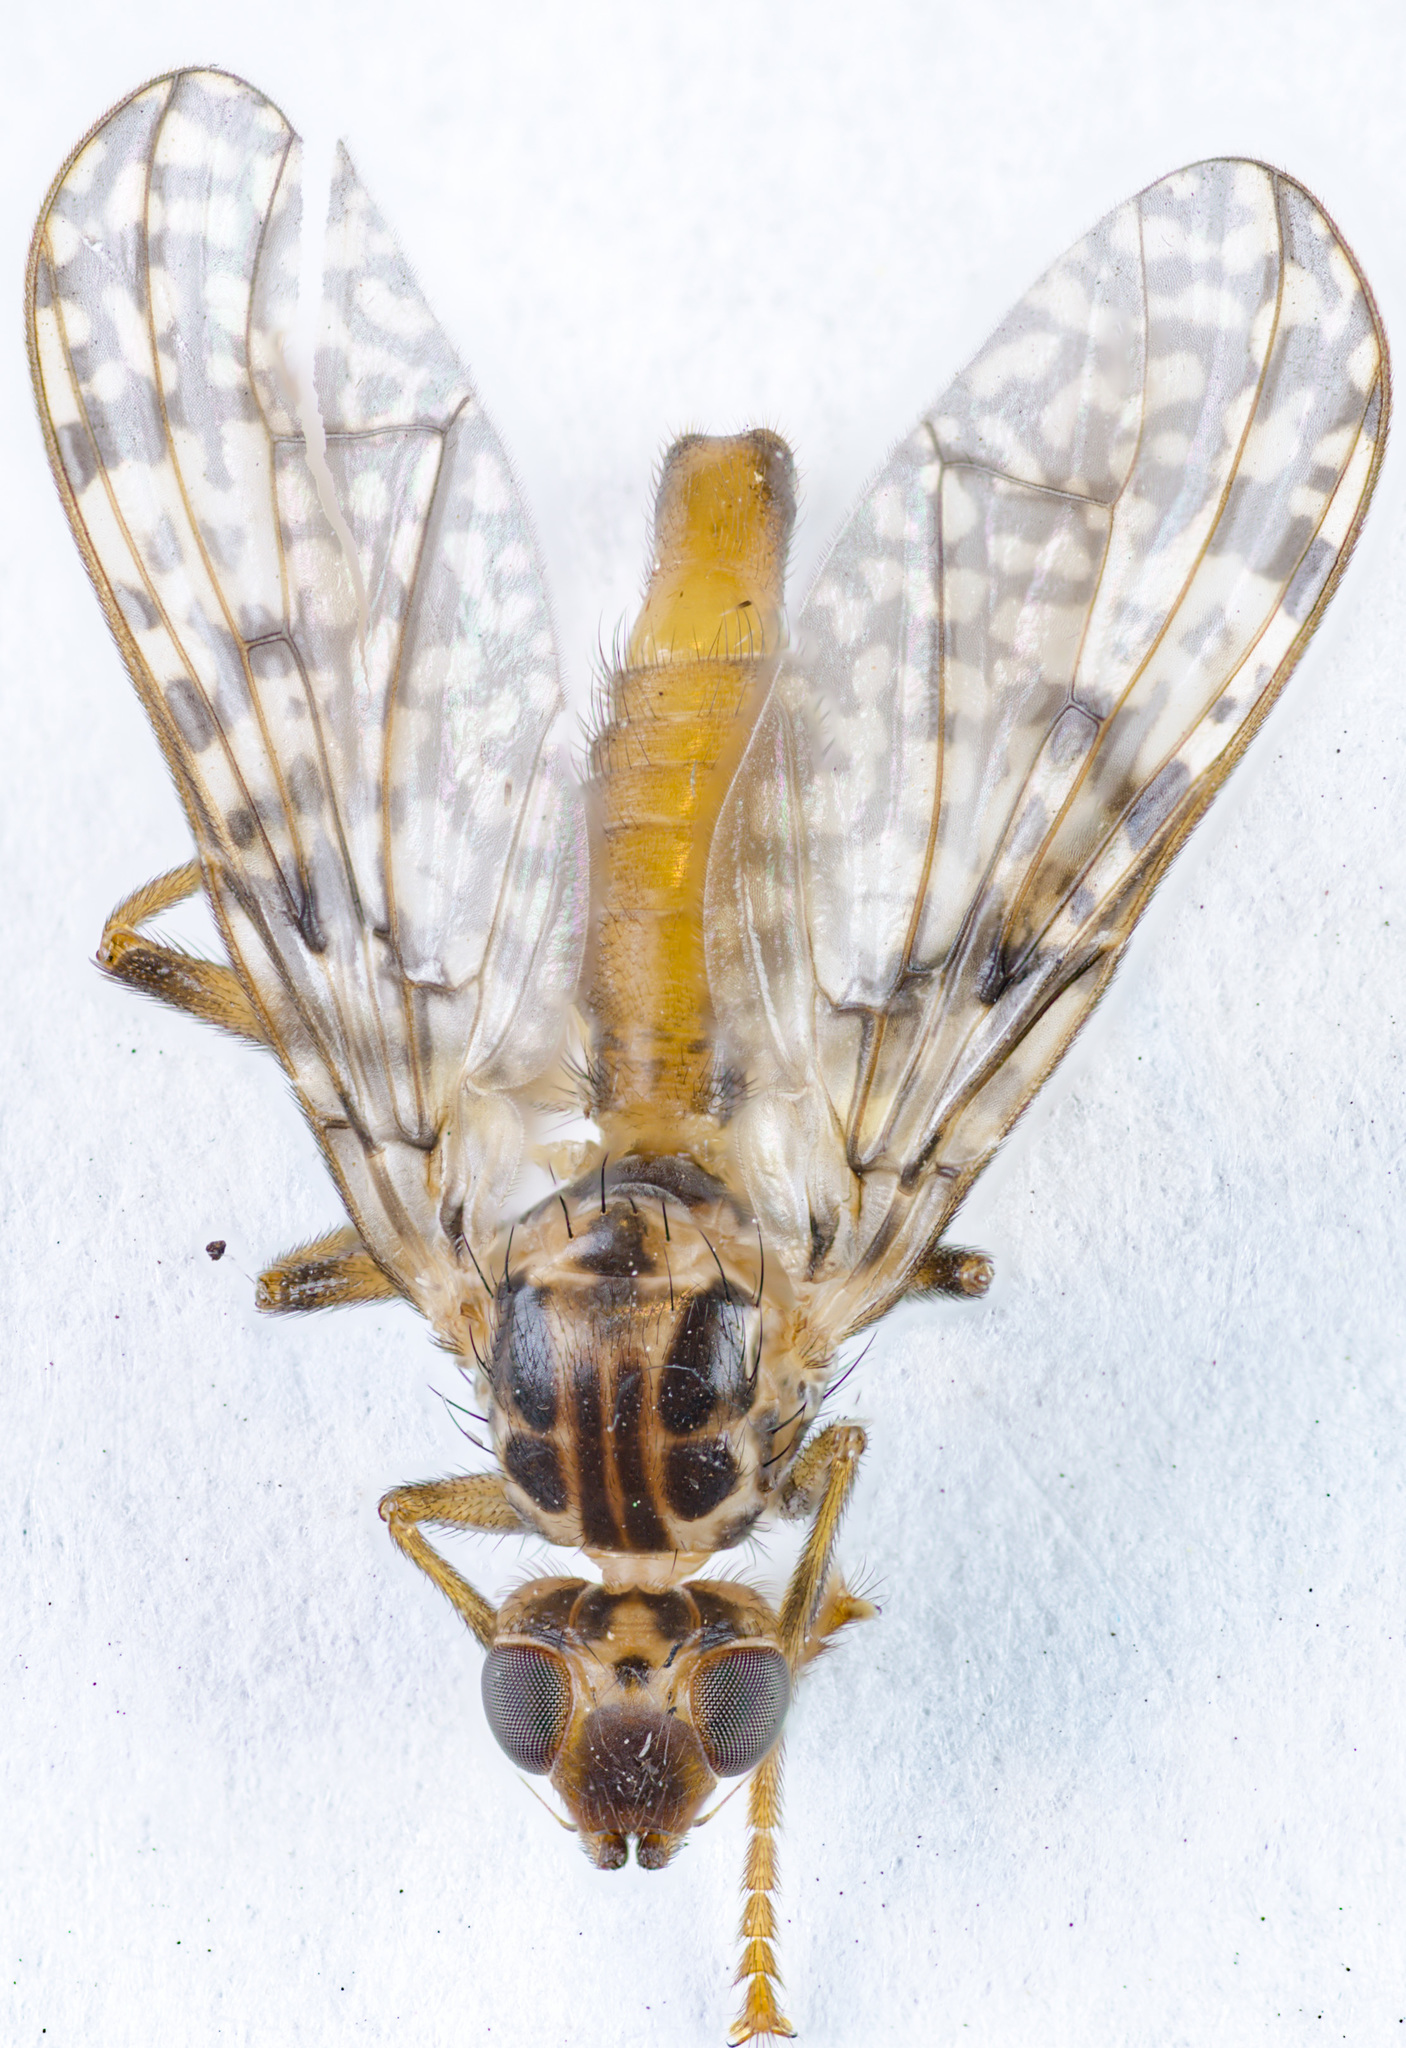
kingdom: Animalia
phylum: Arthropoda
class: Insecta
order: Diptera
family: Pyrgotidae
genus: Boreothrinax
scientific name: Boreothrinax
